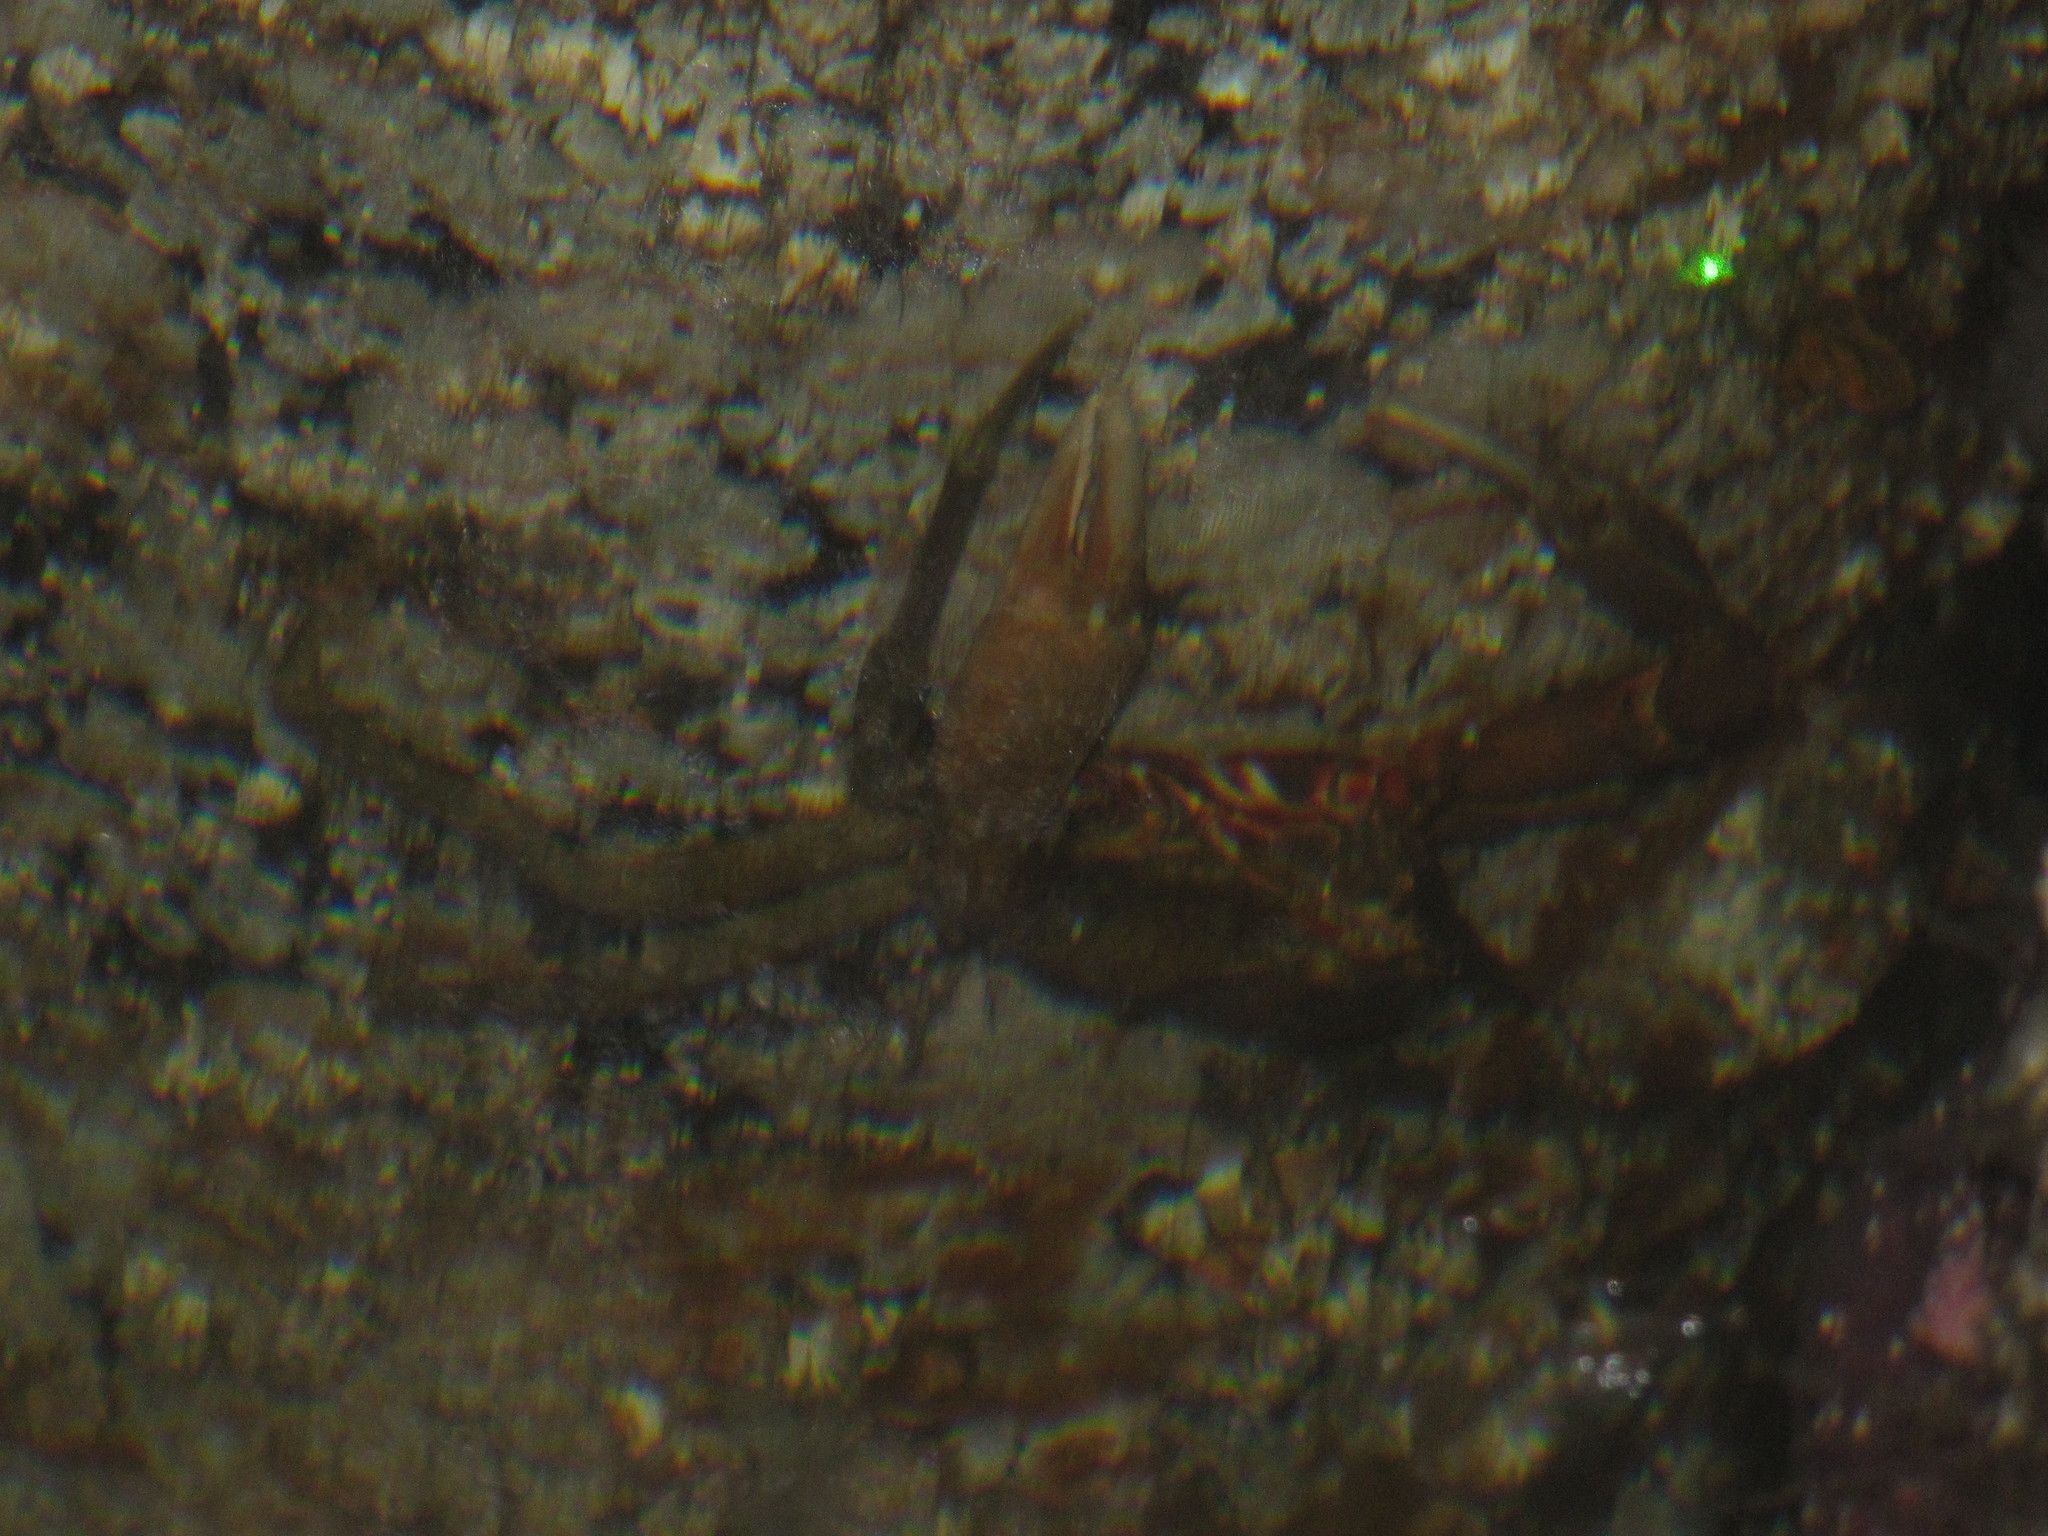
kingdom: Animalia
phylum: Arthropoda
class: Malacostraca
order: Decapoda
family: Epialtidae
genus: Pugettia
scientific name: Pugettia producta
